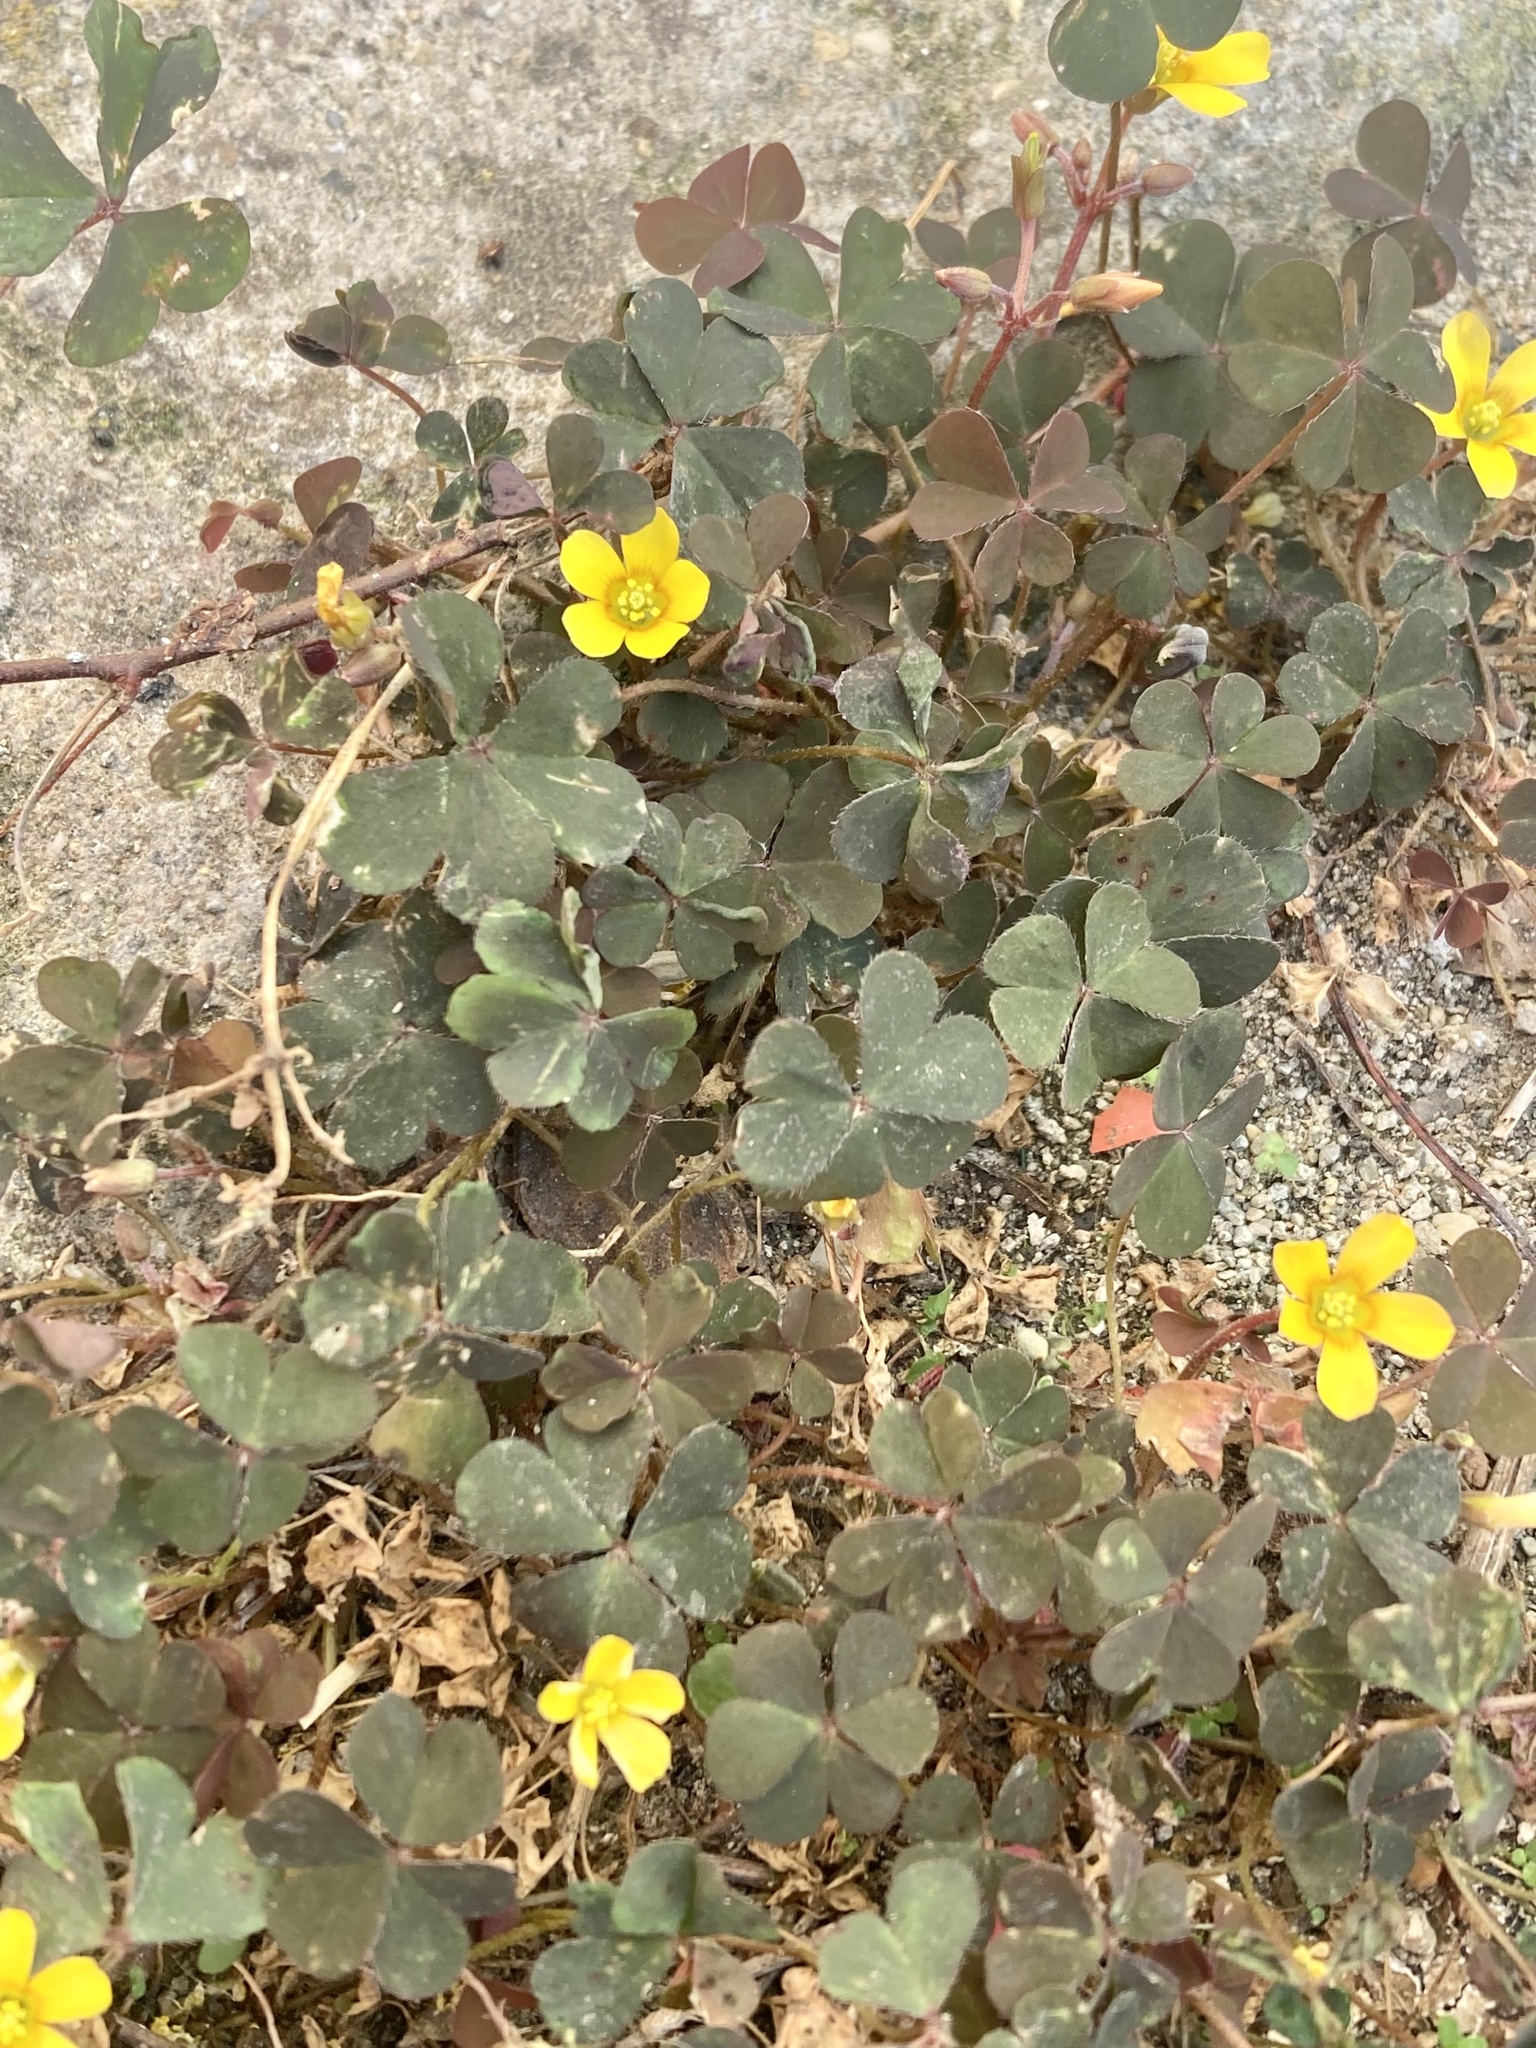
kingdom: Plantae
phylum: Tracheophyta
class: Magnoliopsida
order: Oxalidales
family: Oxalidaceae
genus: Oxalis
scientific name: Oxalis corniculata
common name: Procumbent yellow-sorrel
